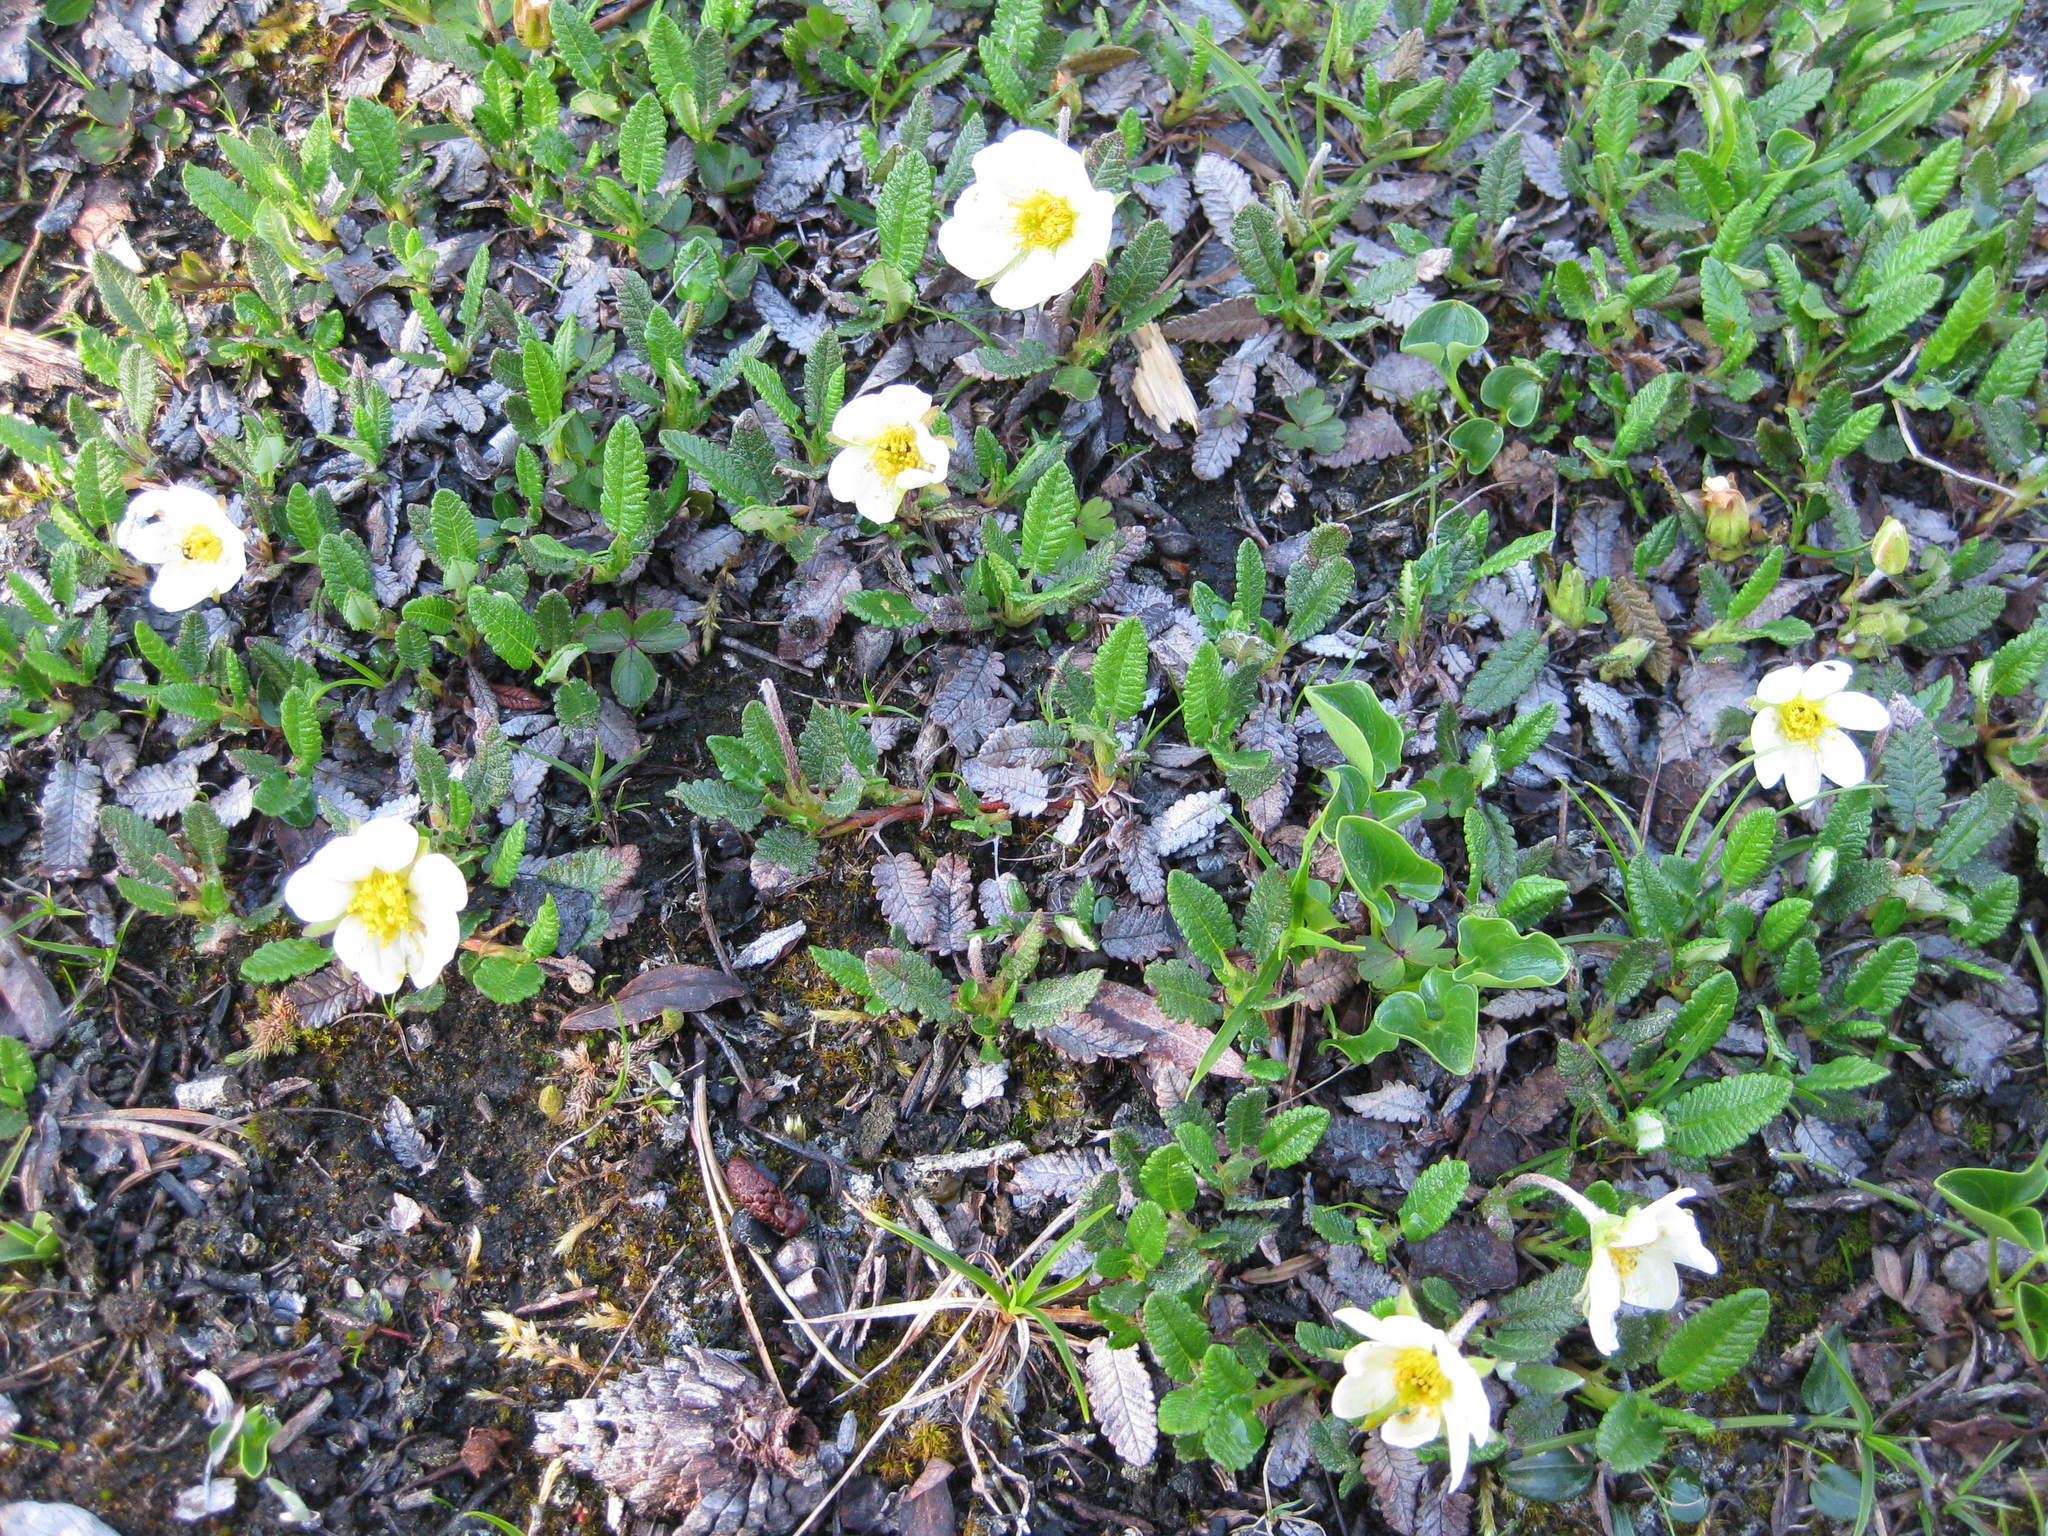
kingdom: Plantae
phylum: Tracheophyta
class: Magnoliopsida
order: Rosales
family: Rosaceae
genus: Dryas
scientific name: Dryas octopetala
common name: Eight-petal mountain-avens
